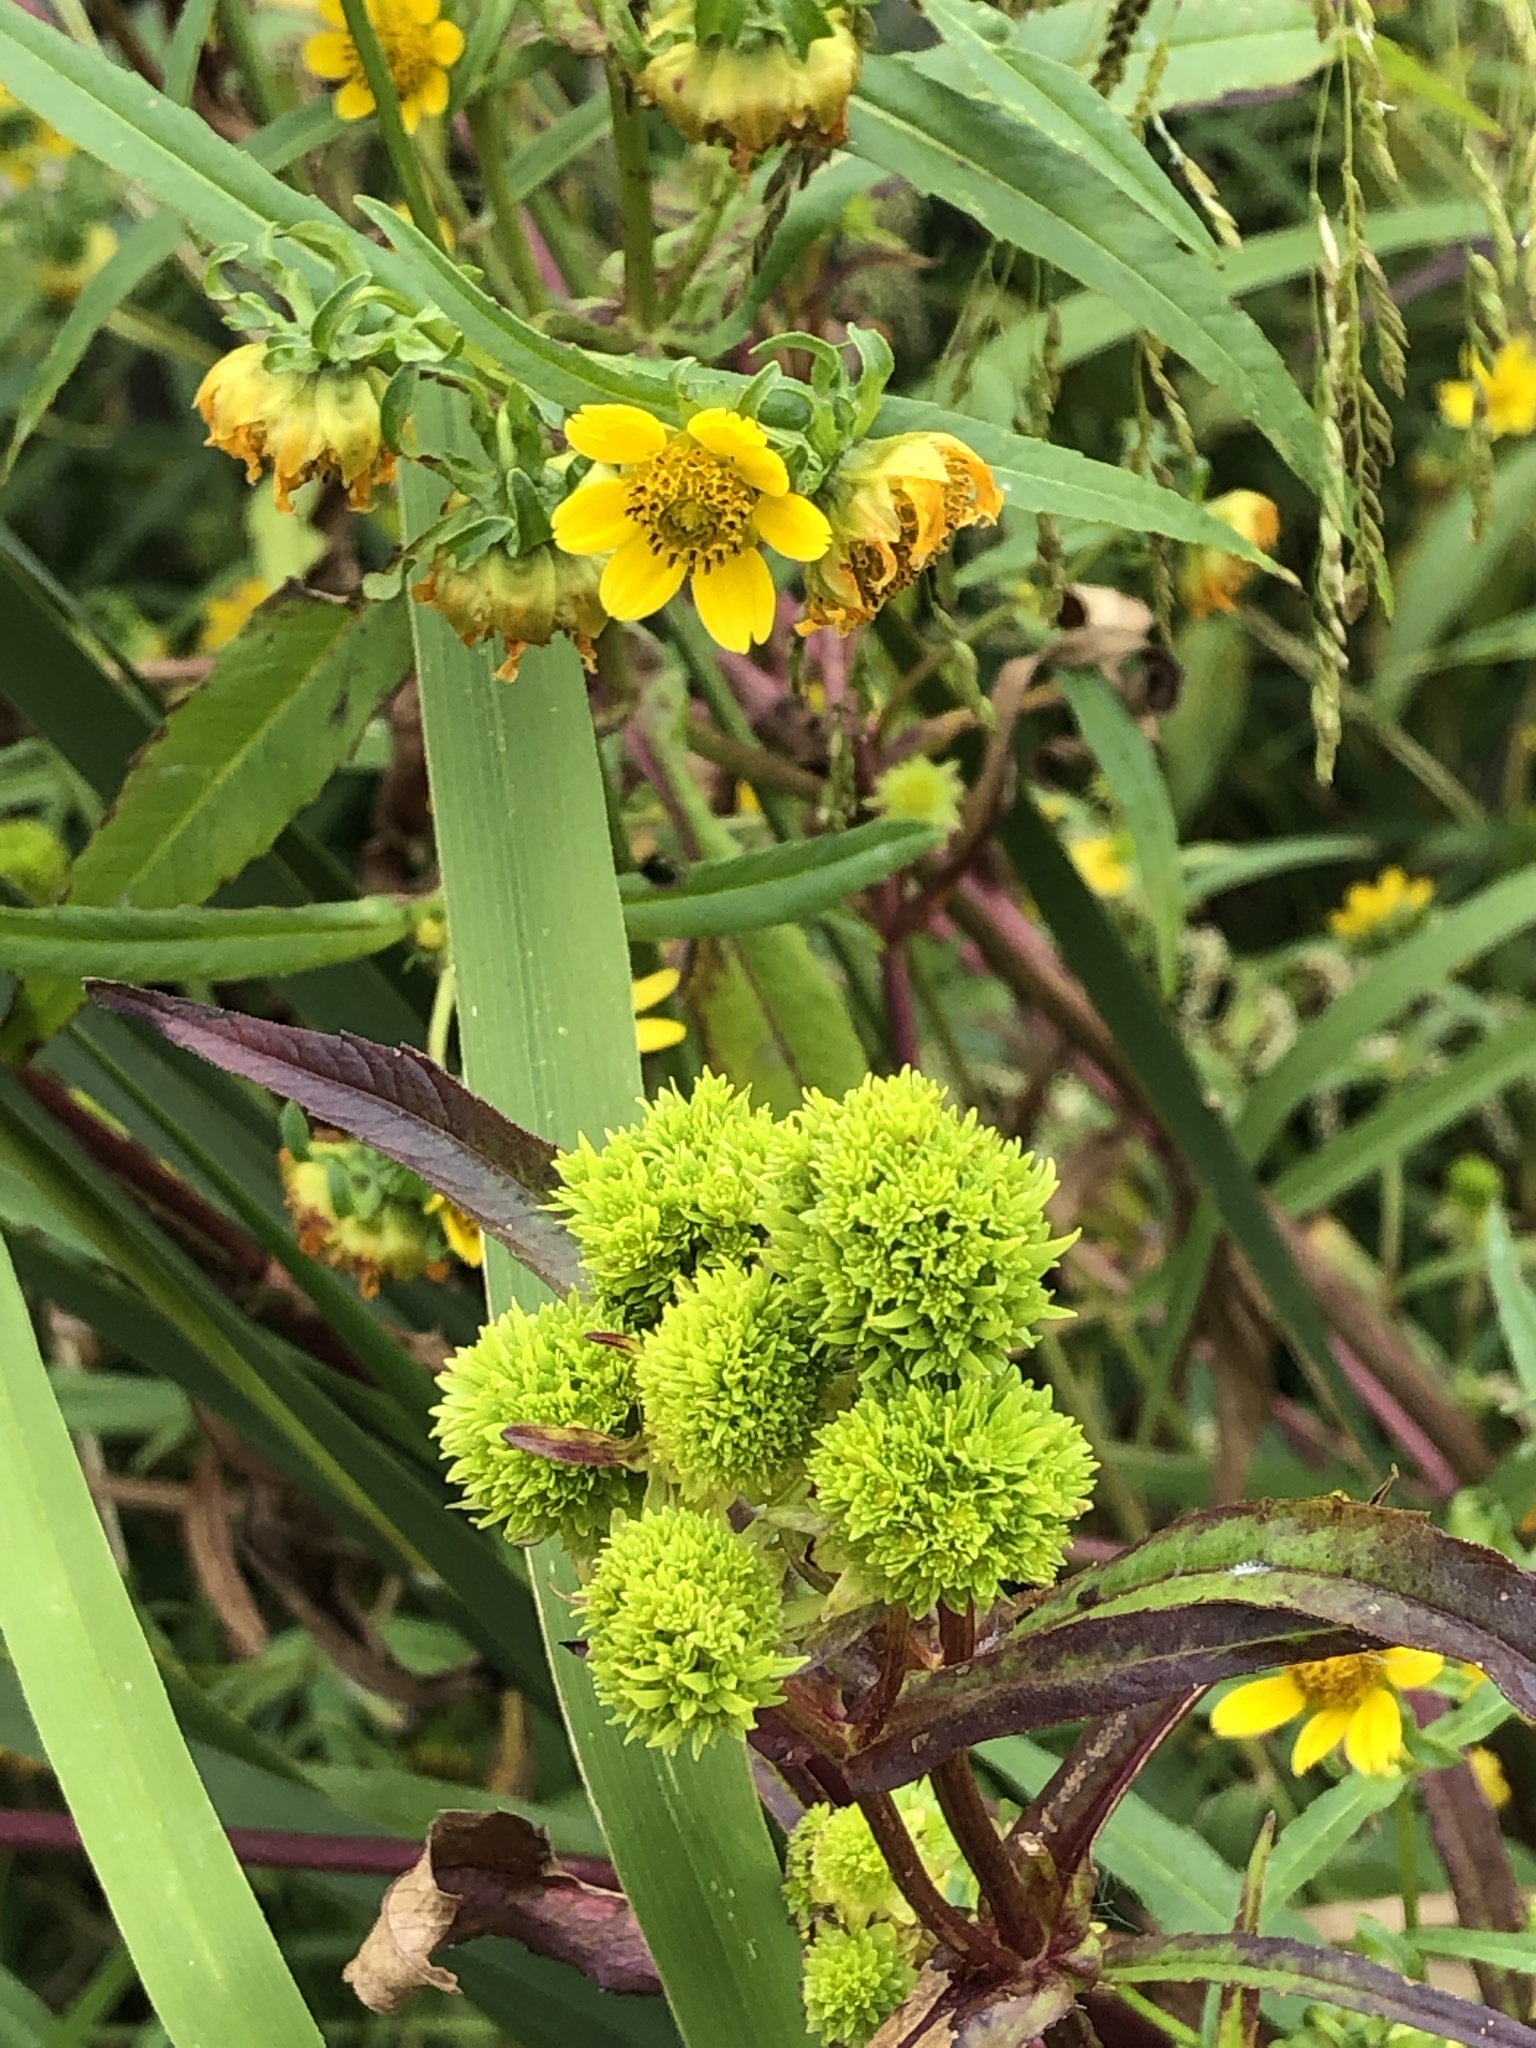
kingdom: Plantae
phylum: Tracheophyta
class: Magnoliopsida
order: Asterales
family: Asteraceae
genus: Bidens
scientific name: Bidens cernua
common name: Nodding bur-marigold
